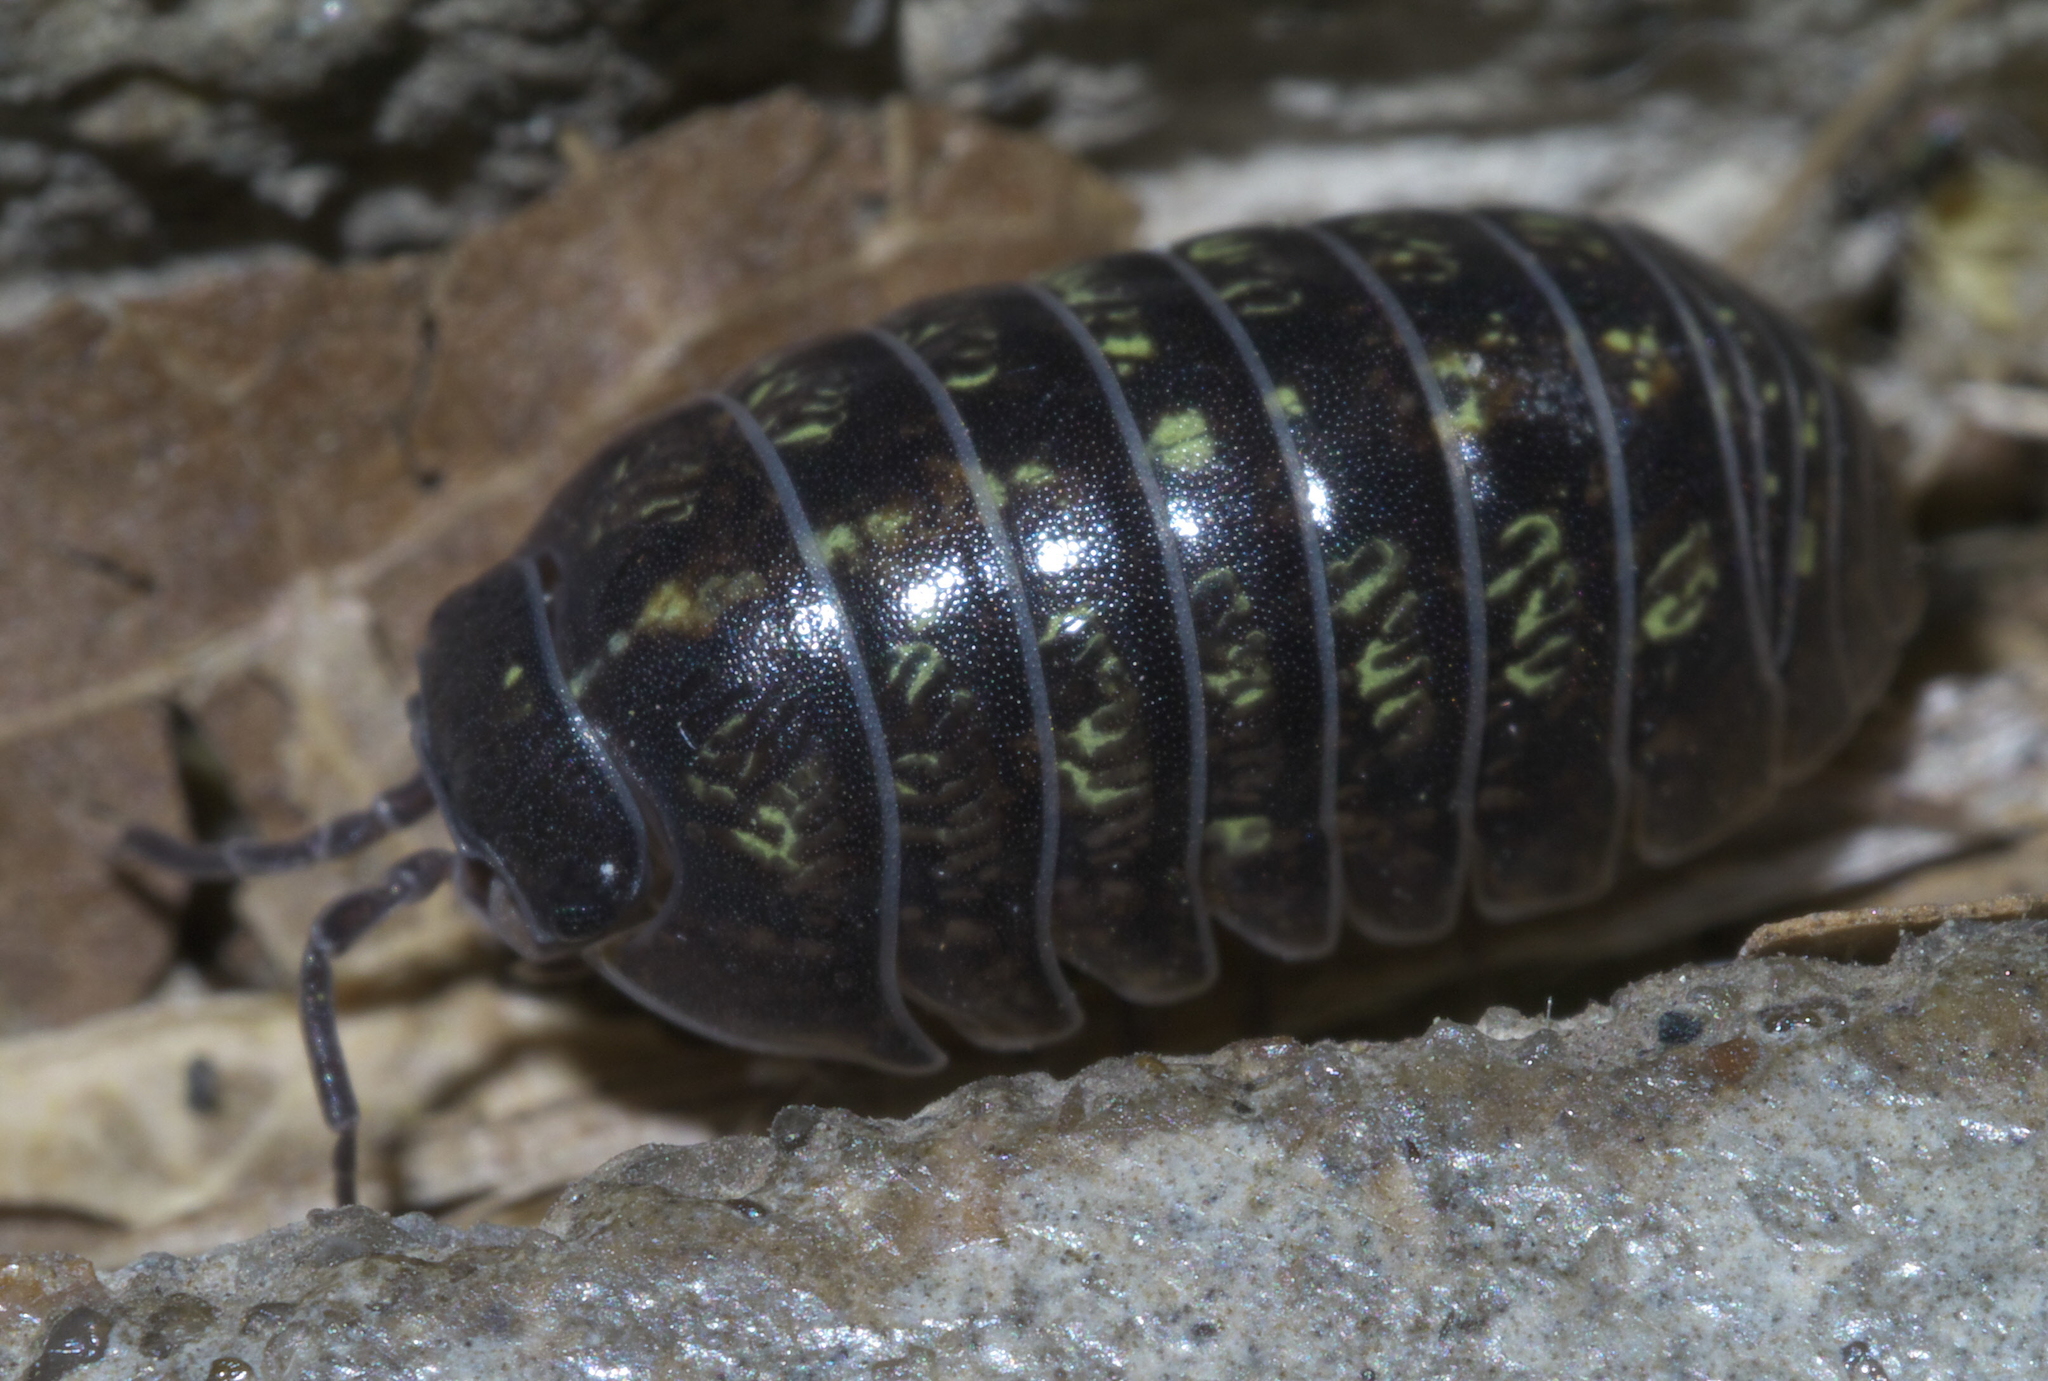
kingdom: Animalia
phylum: Arthropoda
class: Malacostraca
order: Isopoda
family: Armadillidiidae
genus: Armadillidium
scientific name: Armadillidium vulgare
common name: Common pill woodlouse
